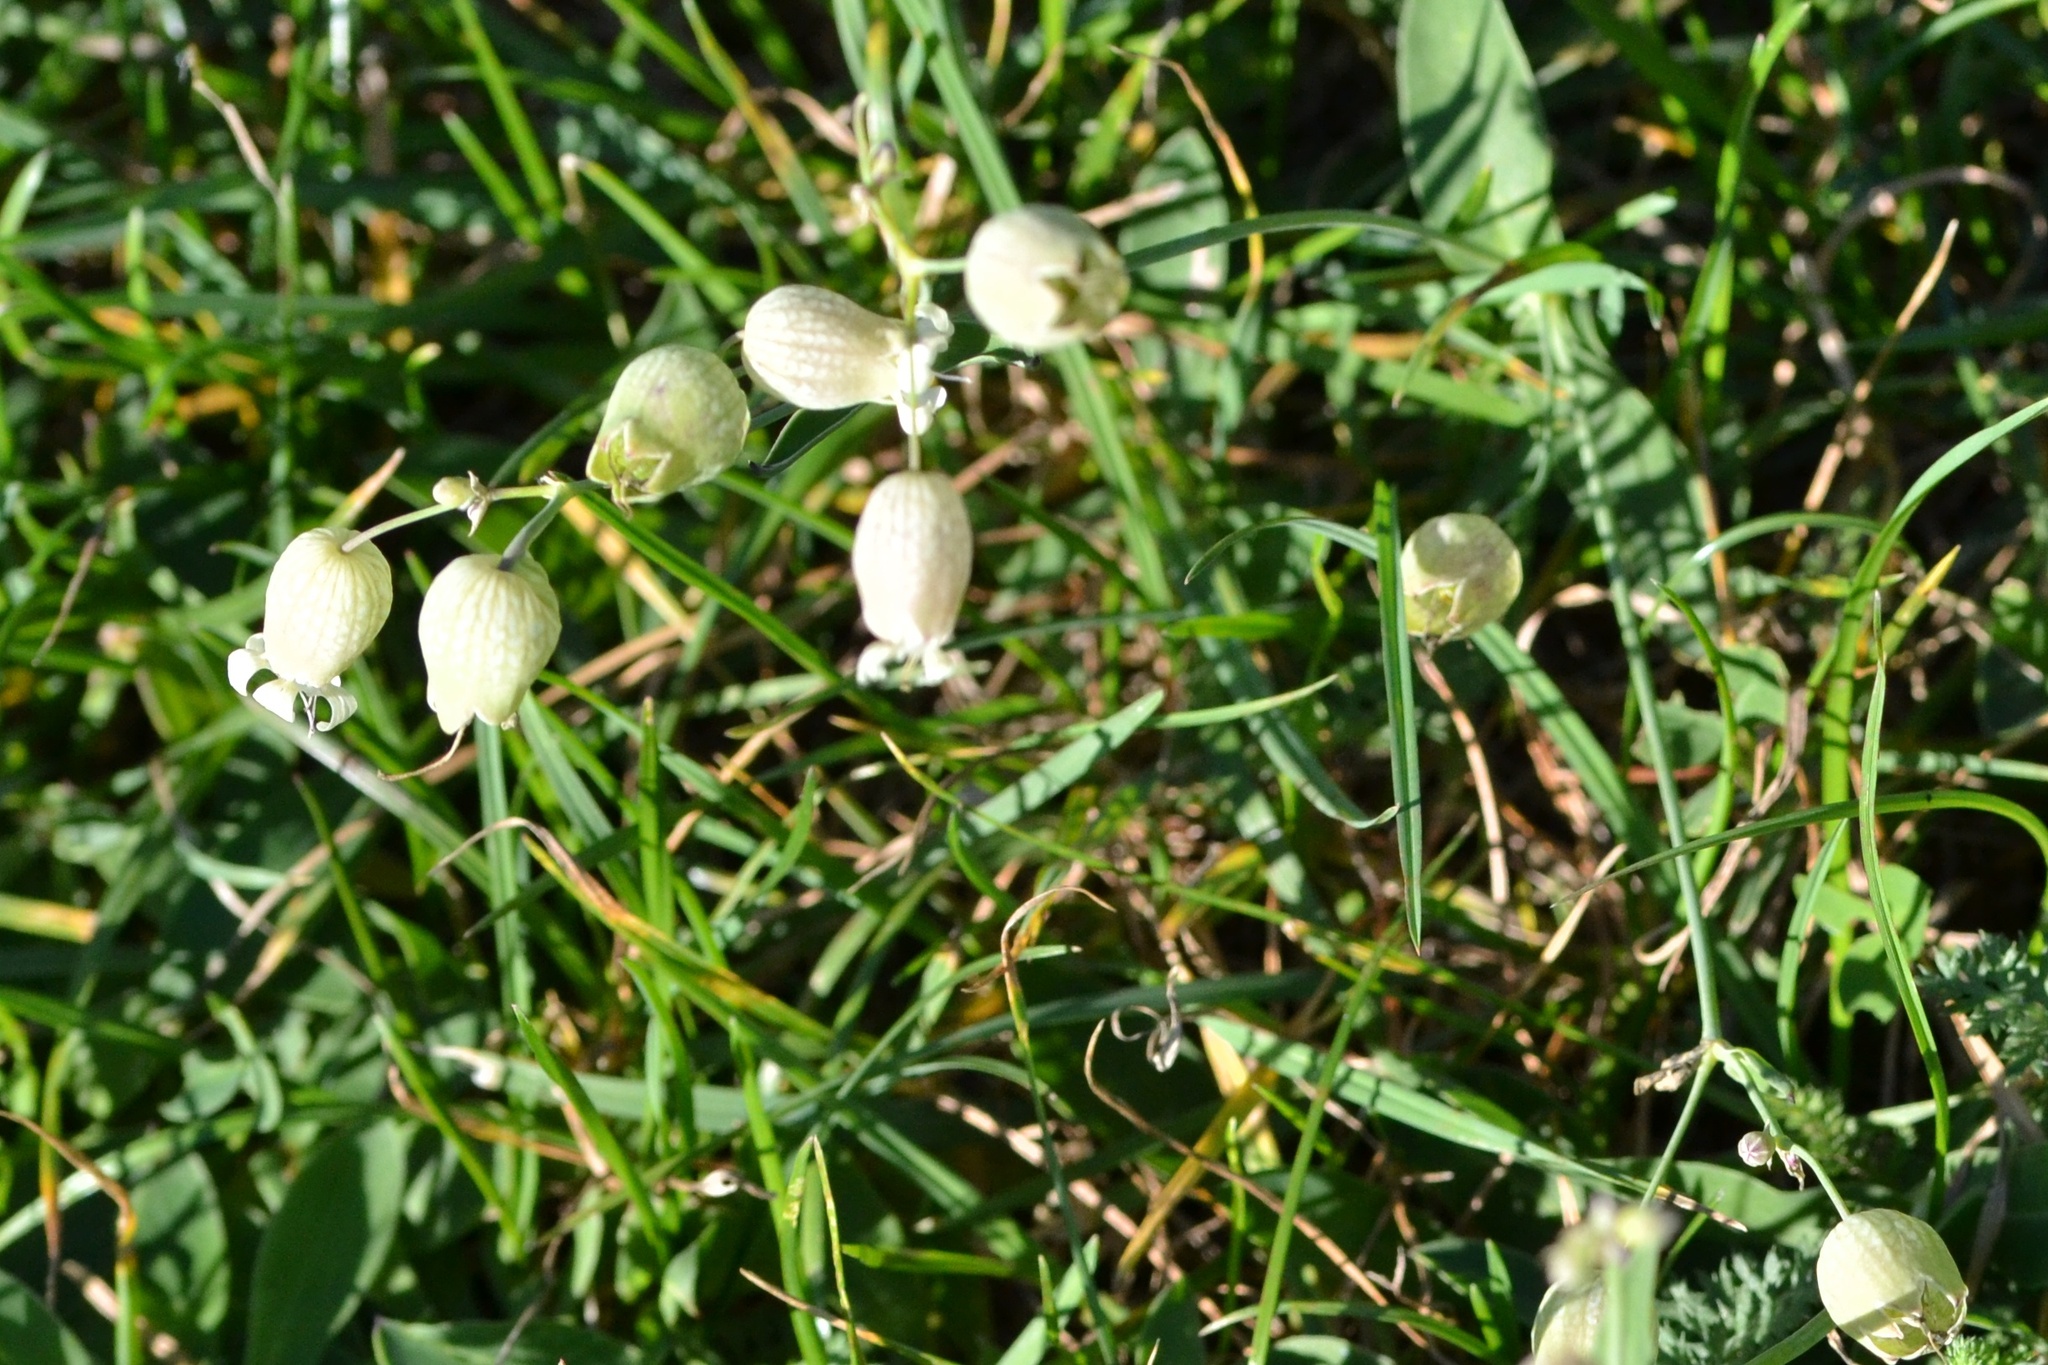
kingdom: Plantae
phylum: Tracheophyta
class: Magnoliopsida
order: Caryophyllales
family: Caryophyllaceae
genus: Silene
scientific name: Silene vulgaris
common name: Bladder campion
